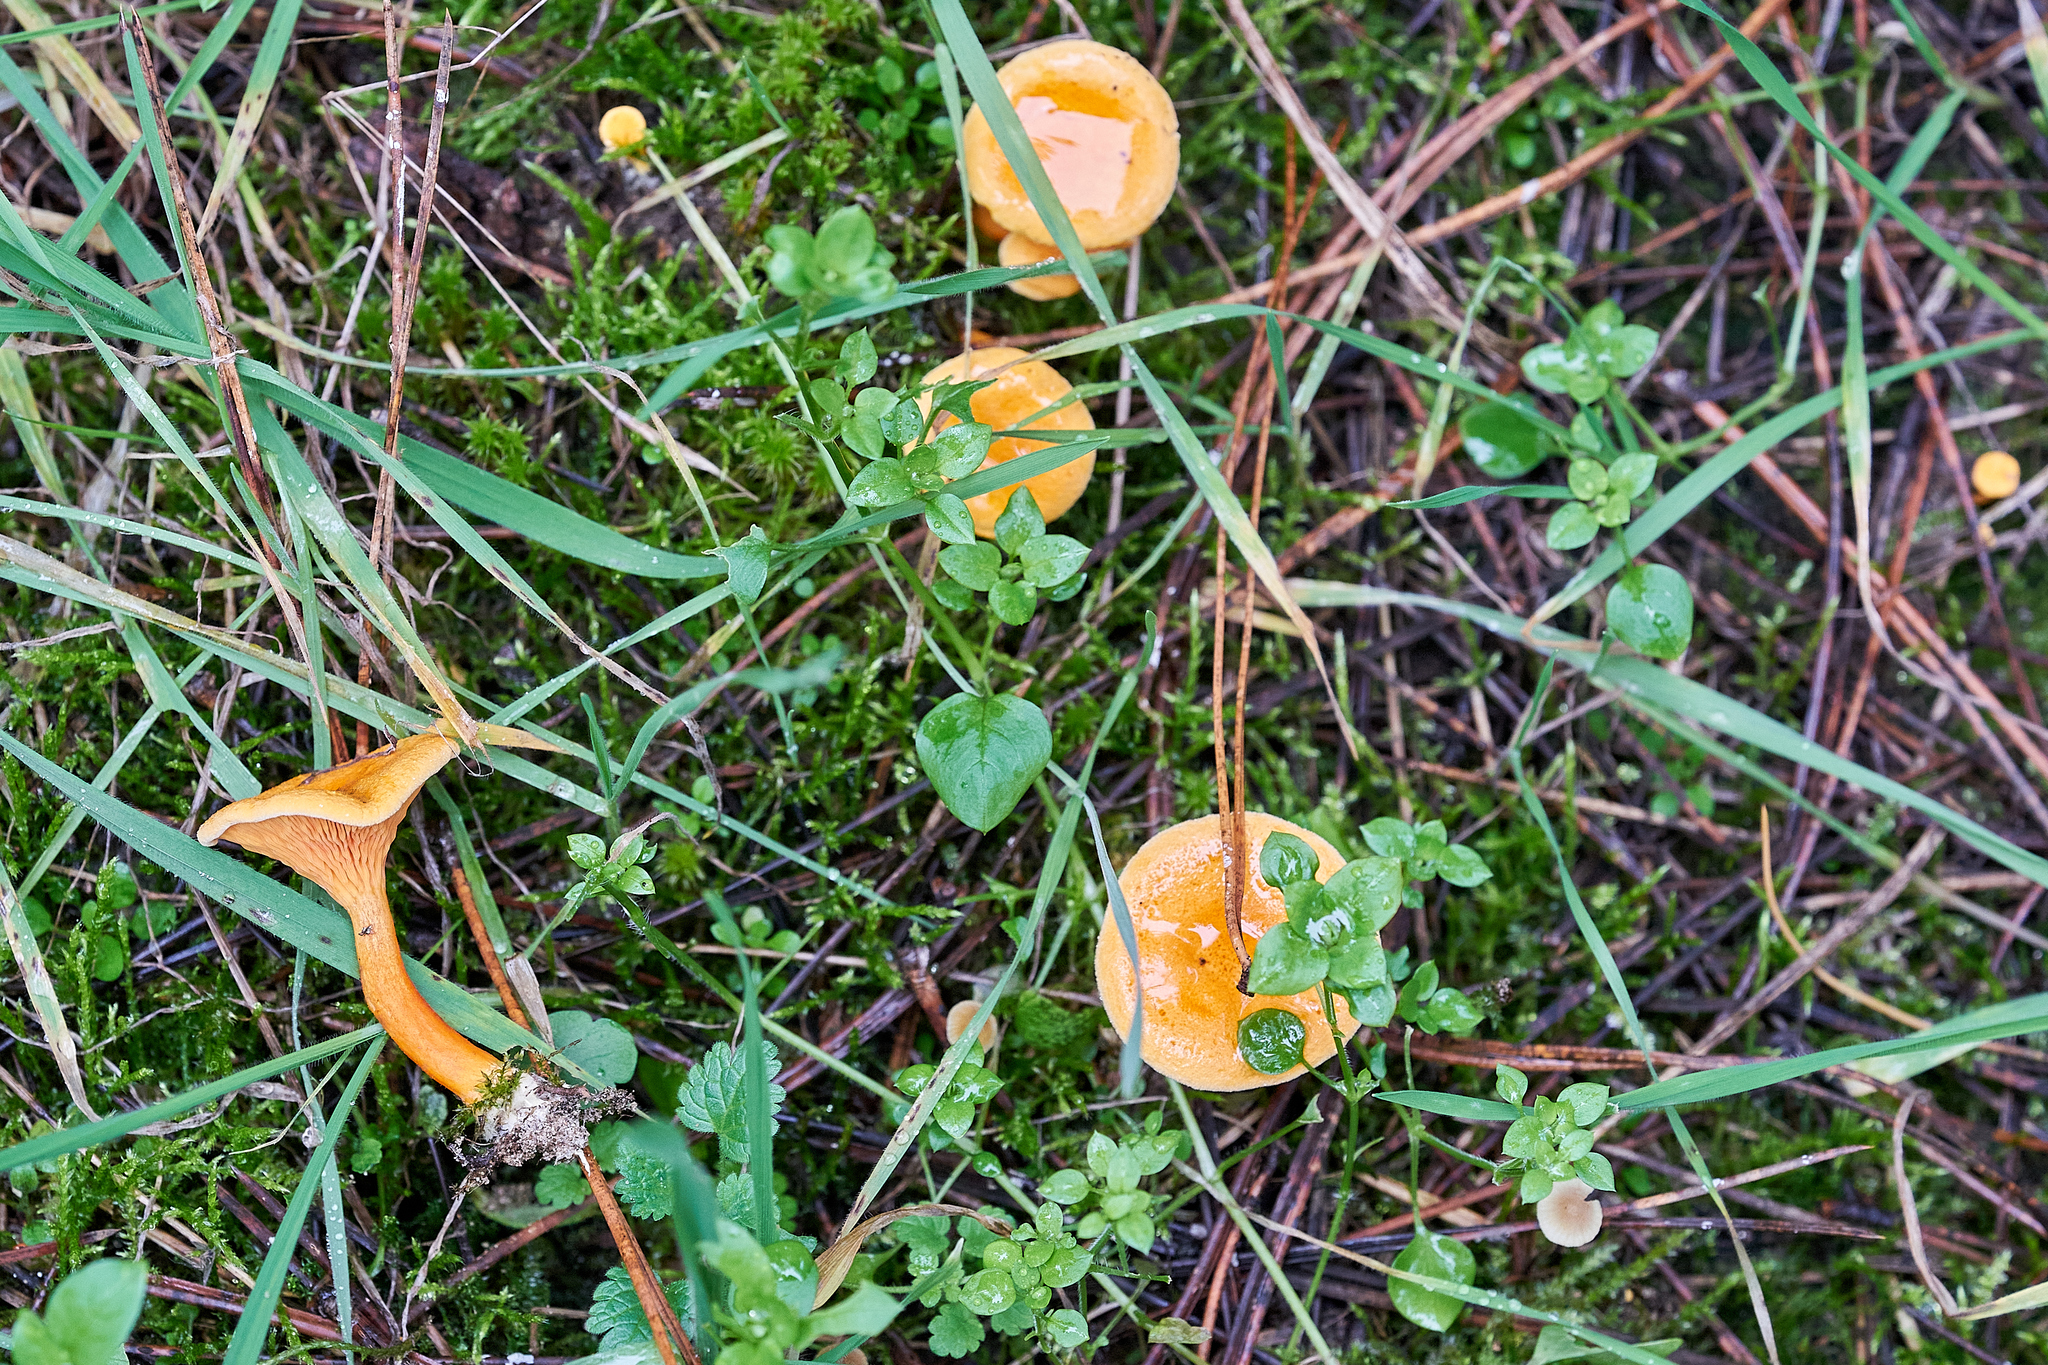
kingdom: Fungi
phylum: Basidiomycota
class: Agaricomycetes
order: Boletales
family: Hygrophoropsidaceae
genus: Hygrophoropsis
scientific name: Hygrophoropsis aurantiaca
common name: False chanterelle
